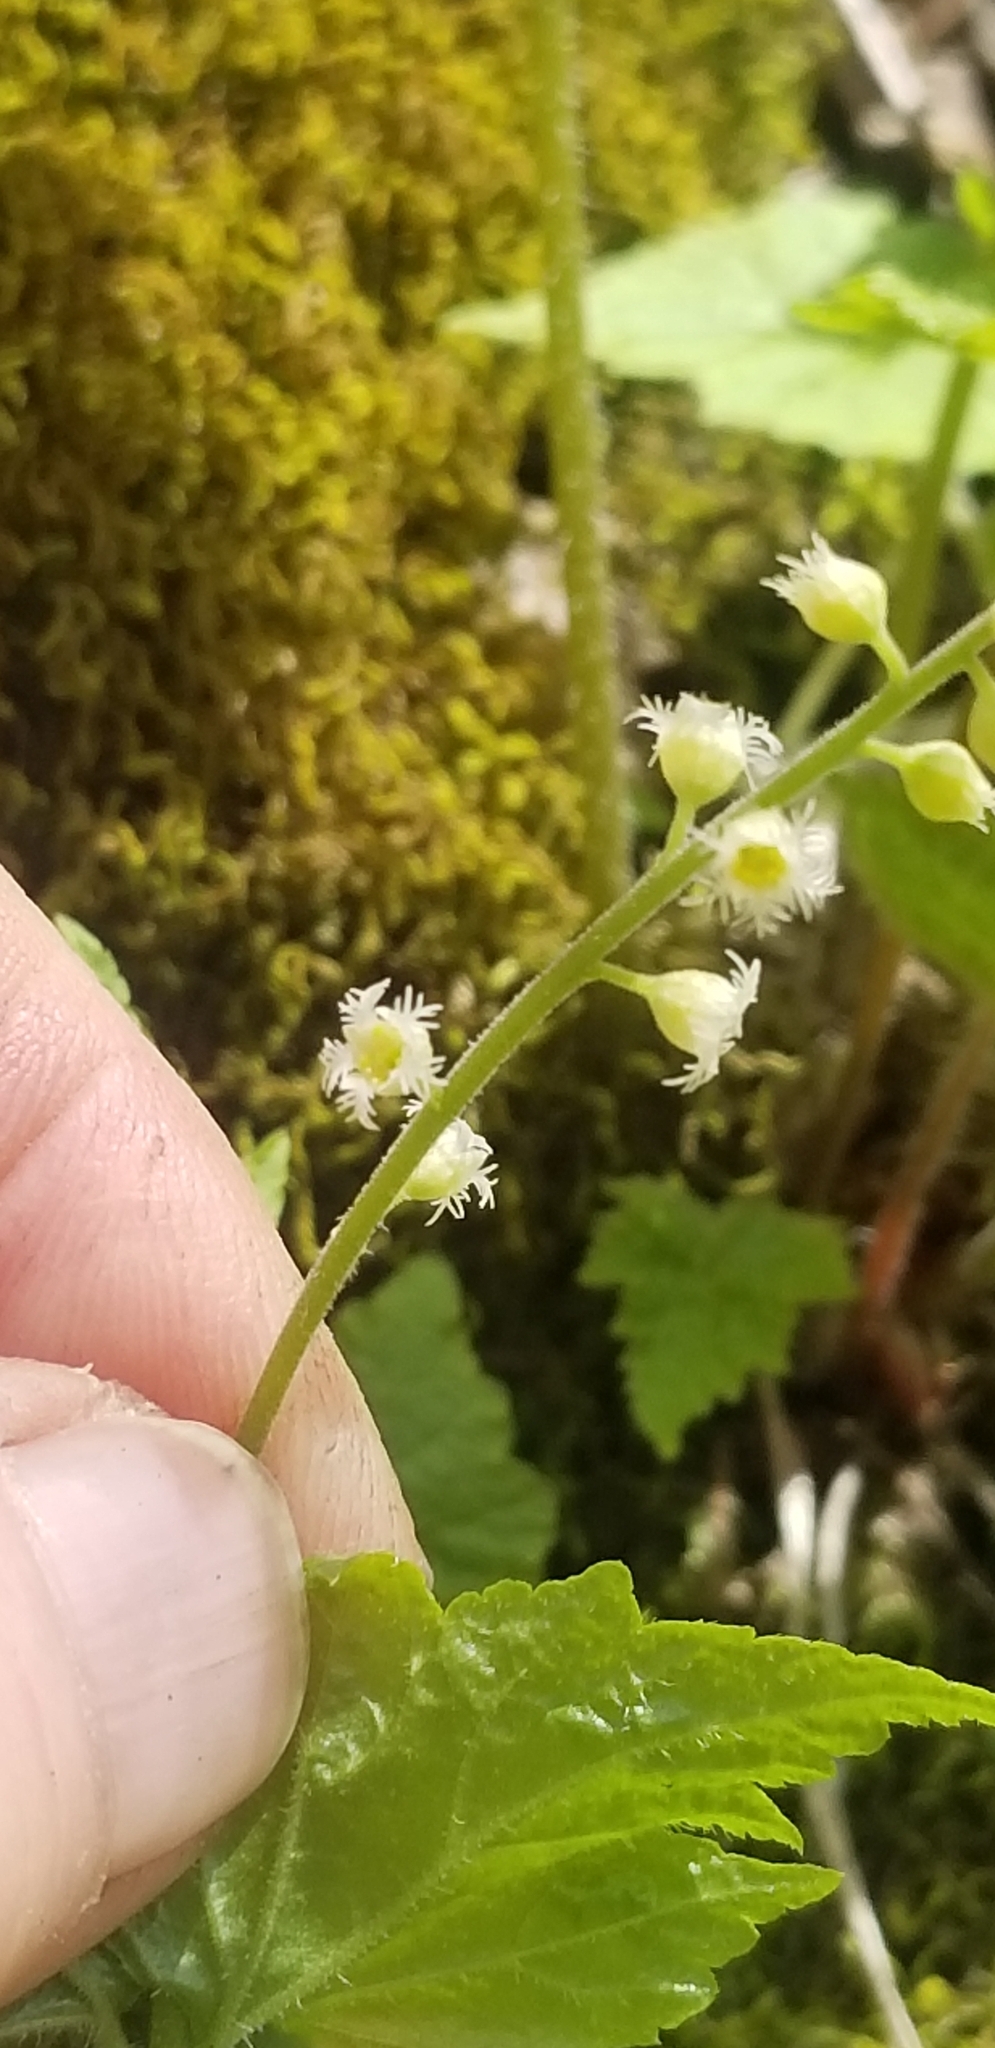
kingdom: Plantae
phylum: Tracheophyta
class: Magnoliopsida
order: Saxifragales
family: Saxifragaceae
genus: Mitella
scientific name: Mitella diphylla
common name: Coolwort
